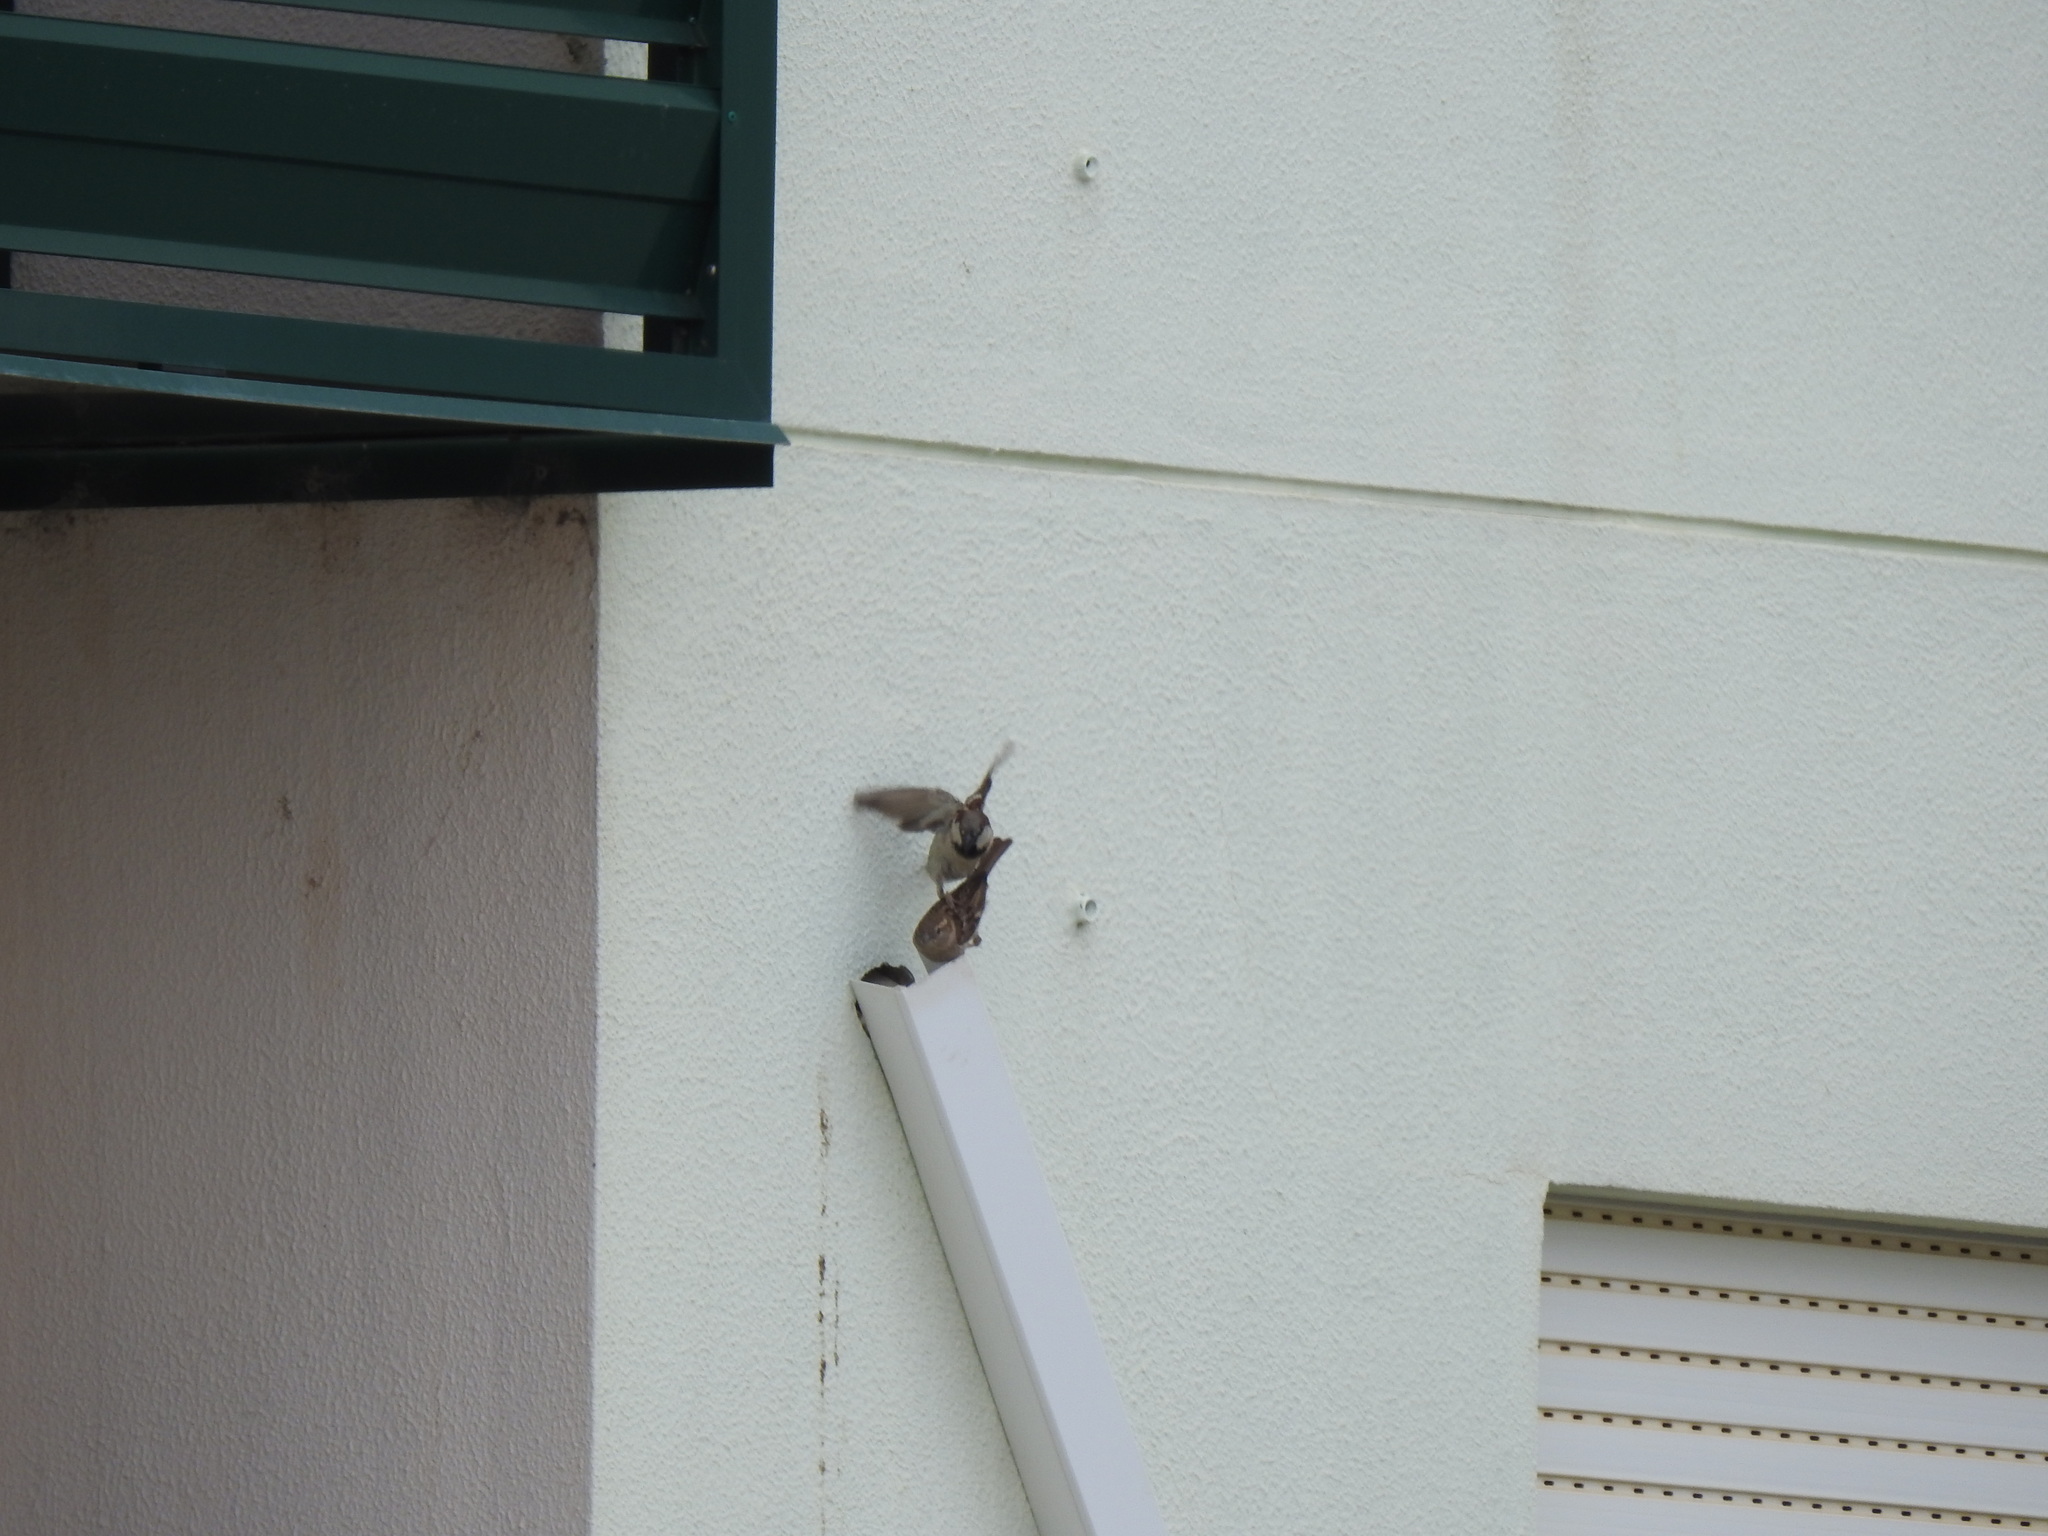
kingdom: Animalia
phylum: Chordata
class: Aves
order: Passeriformes
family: Passeridae
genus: Passer
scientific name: Passer domesticus
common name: House sparrow
